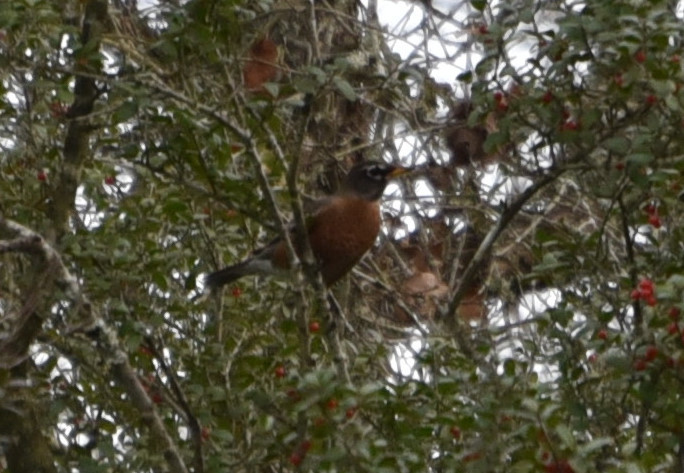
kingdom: Animalia
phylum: Chordata
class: Aves
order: Passeriformes
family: Turdidae
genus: Turdus
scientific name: Turdus migratorius
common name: American robin
